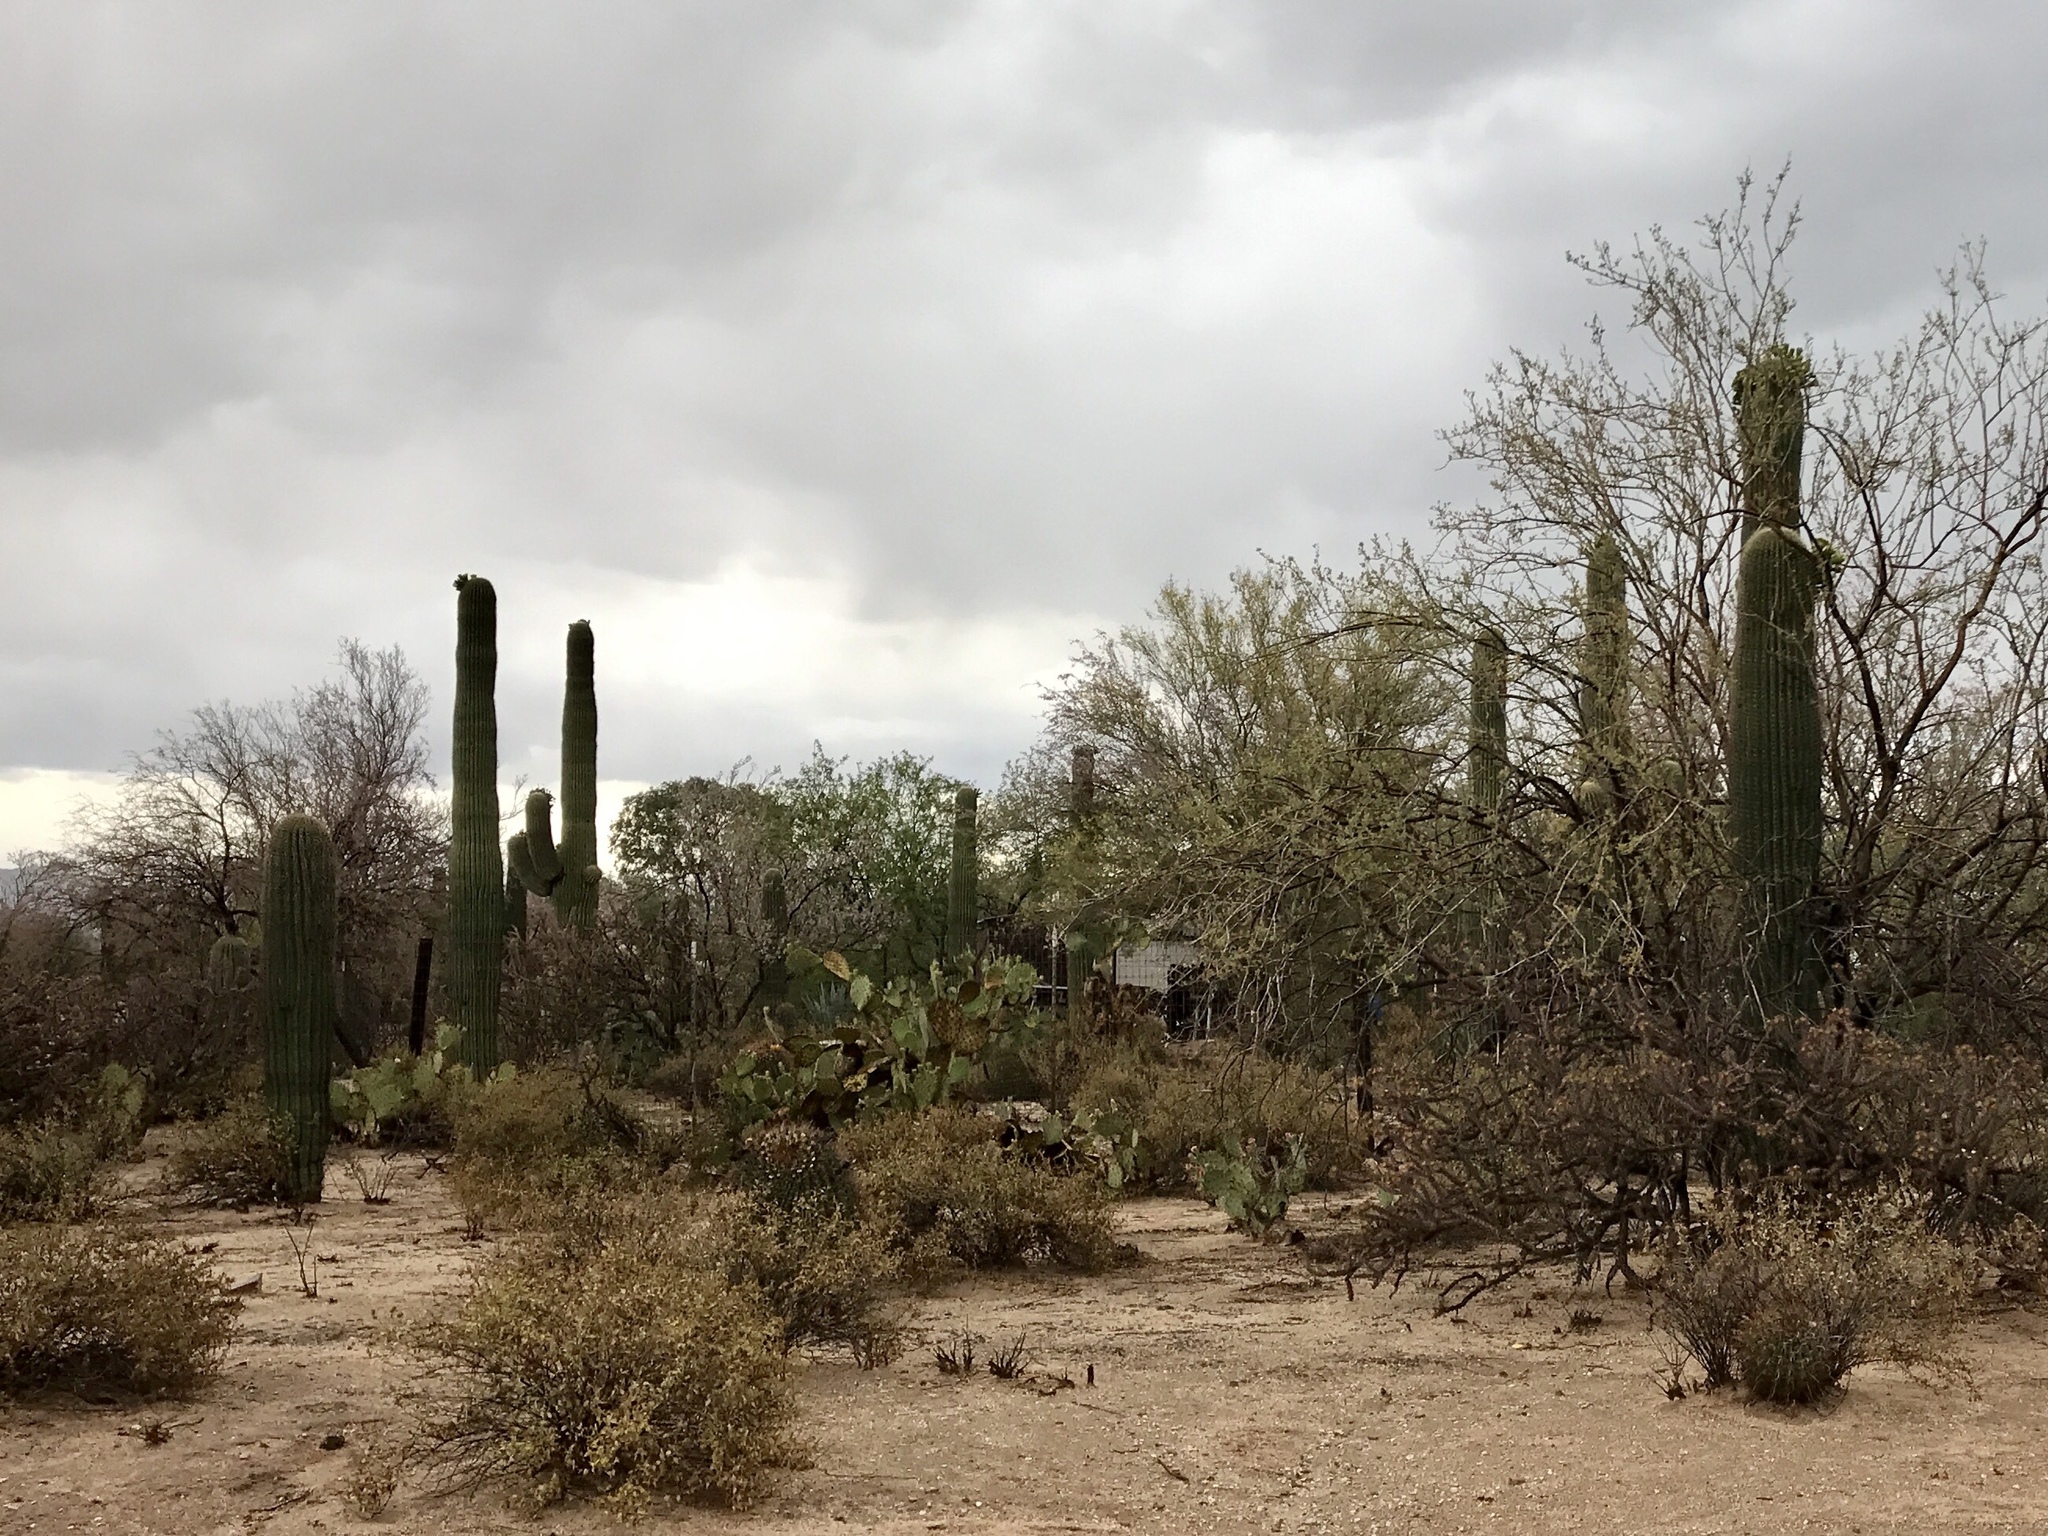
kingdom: Plantae
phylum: Tracheophyta
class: Magnoliopsida
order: Caryophyllales
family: Cactaceae
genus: Carnegiea
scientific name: Carnegiea gigantea
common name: Saguaro
